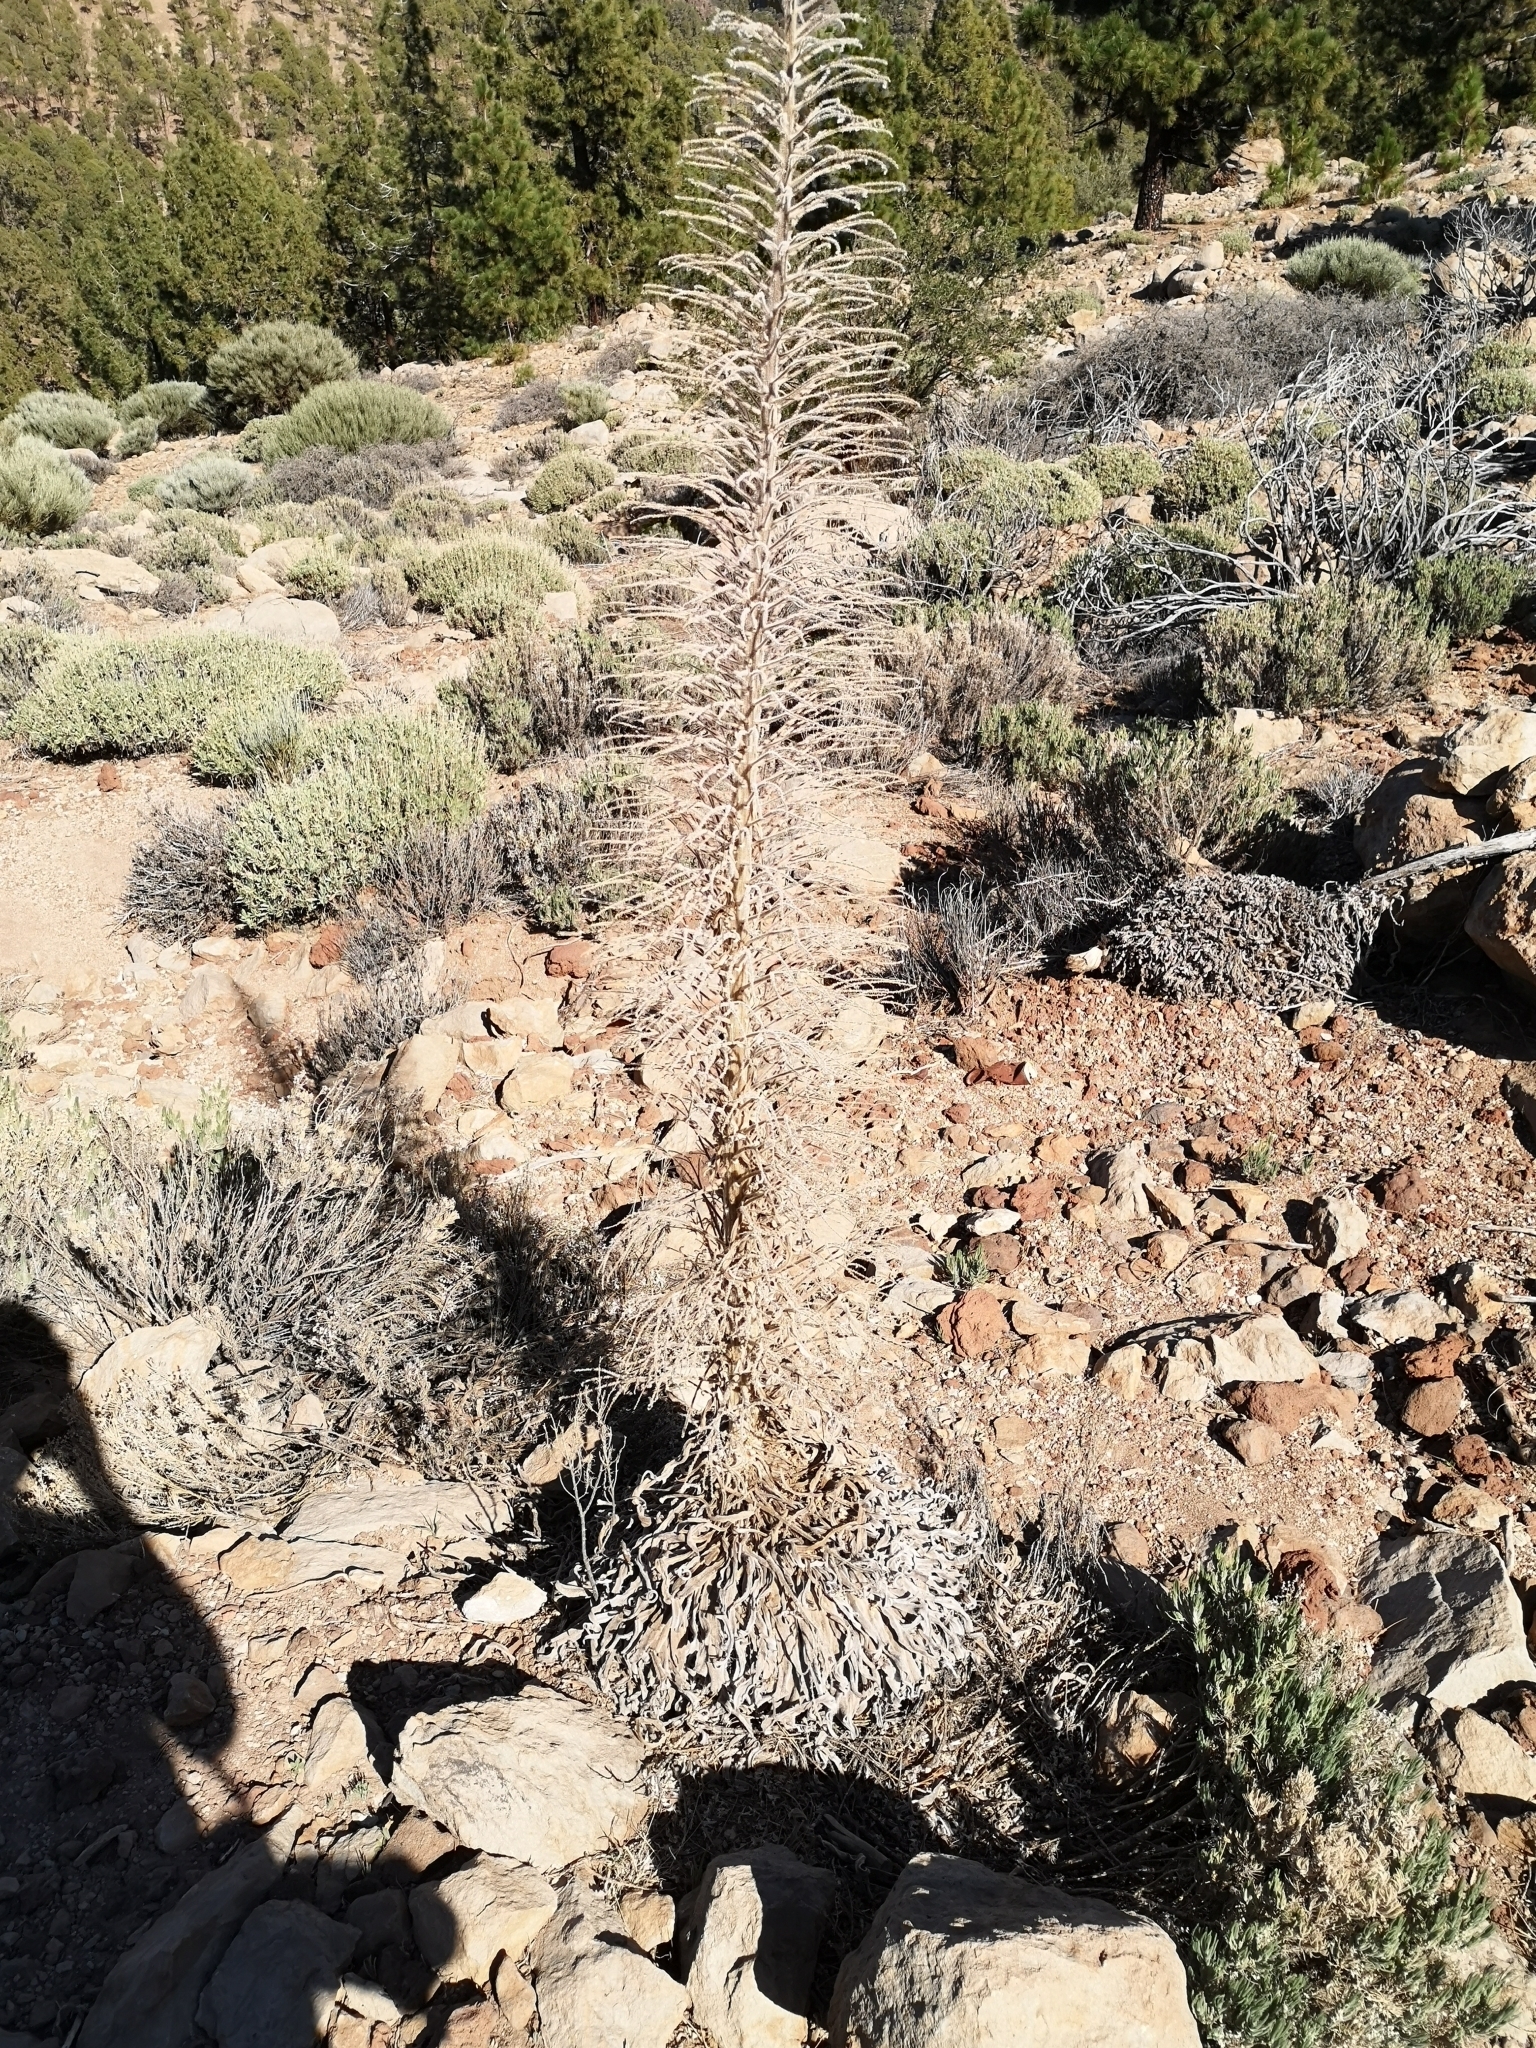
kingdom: Plantae
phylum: Tracheophyta
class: Magnoliopsida
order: Boraginales
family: Boraginaceae
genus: Echium
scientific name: Echium wildpretii
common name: Tower-of-jewels
